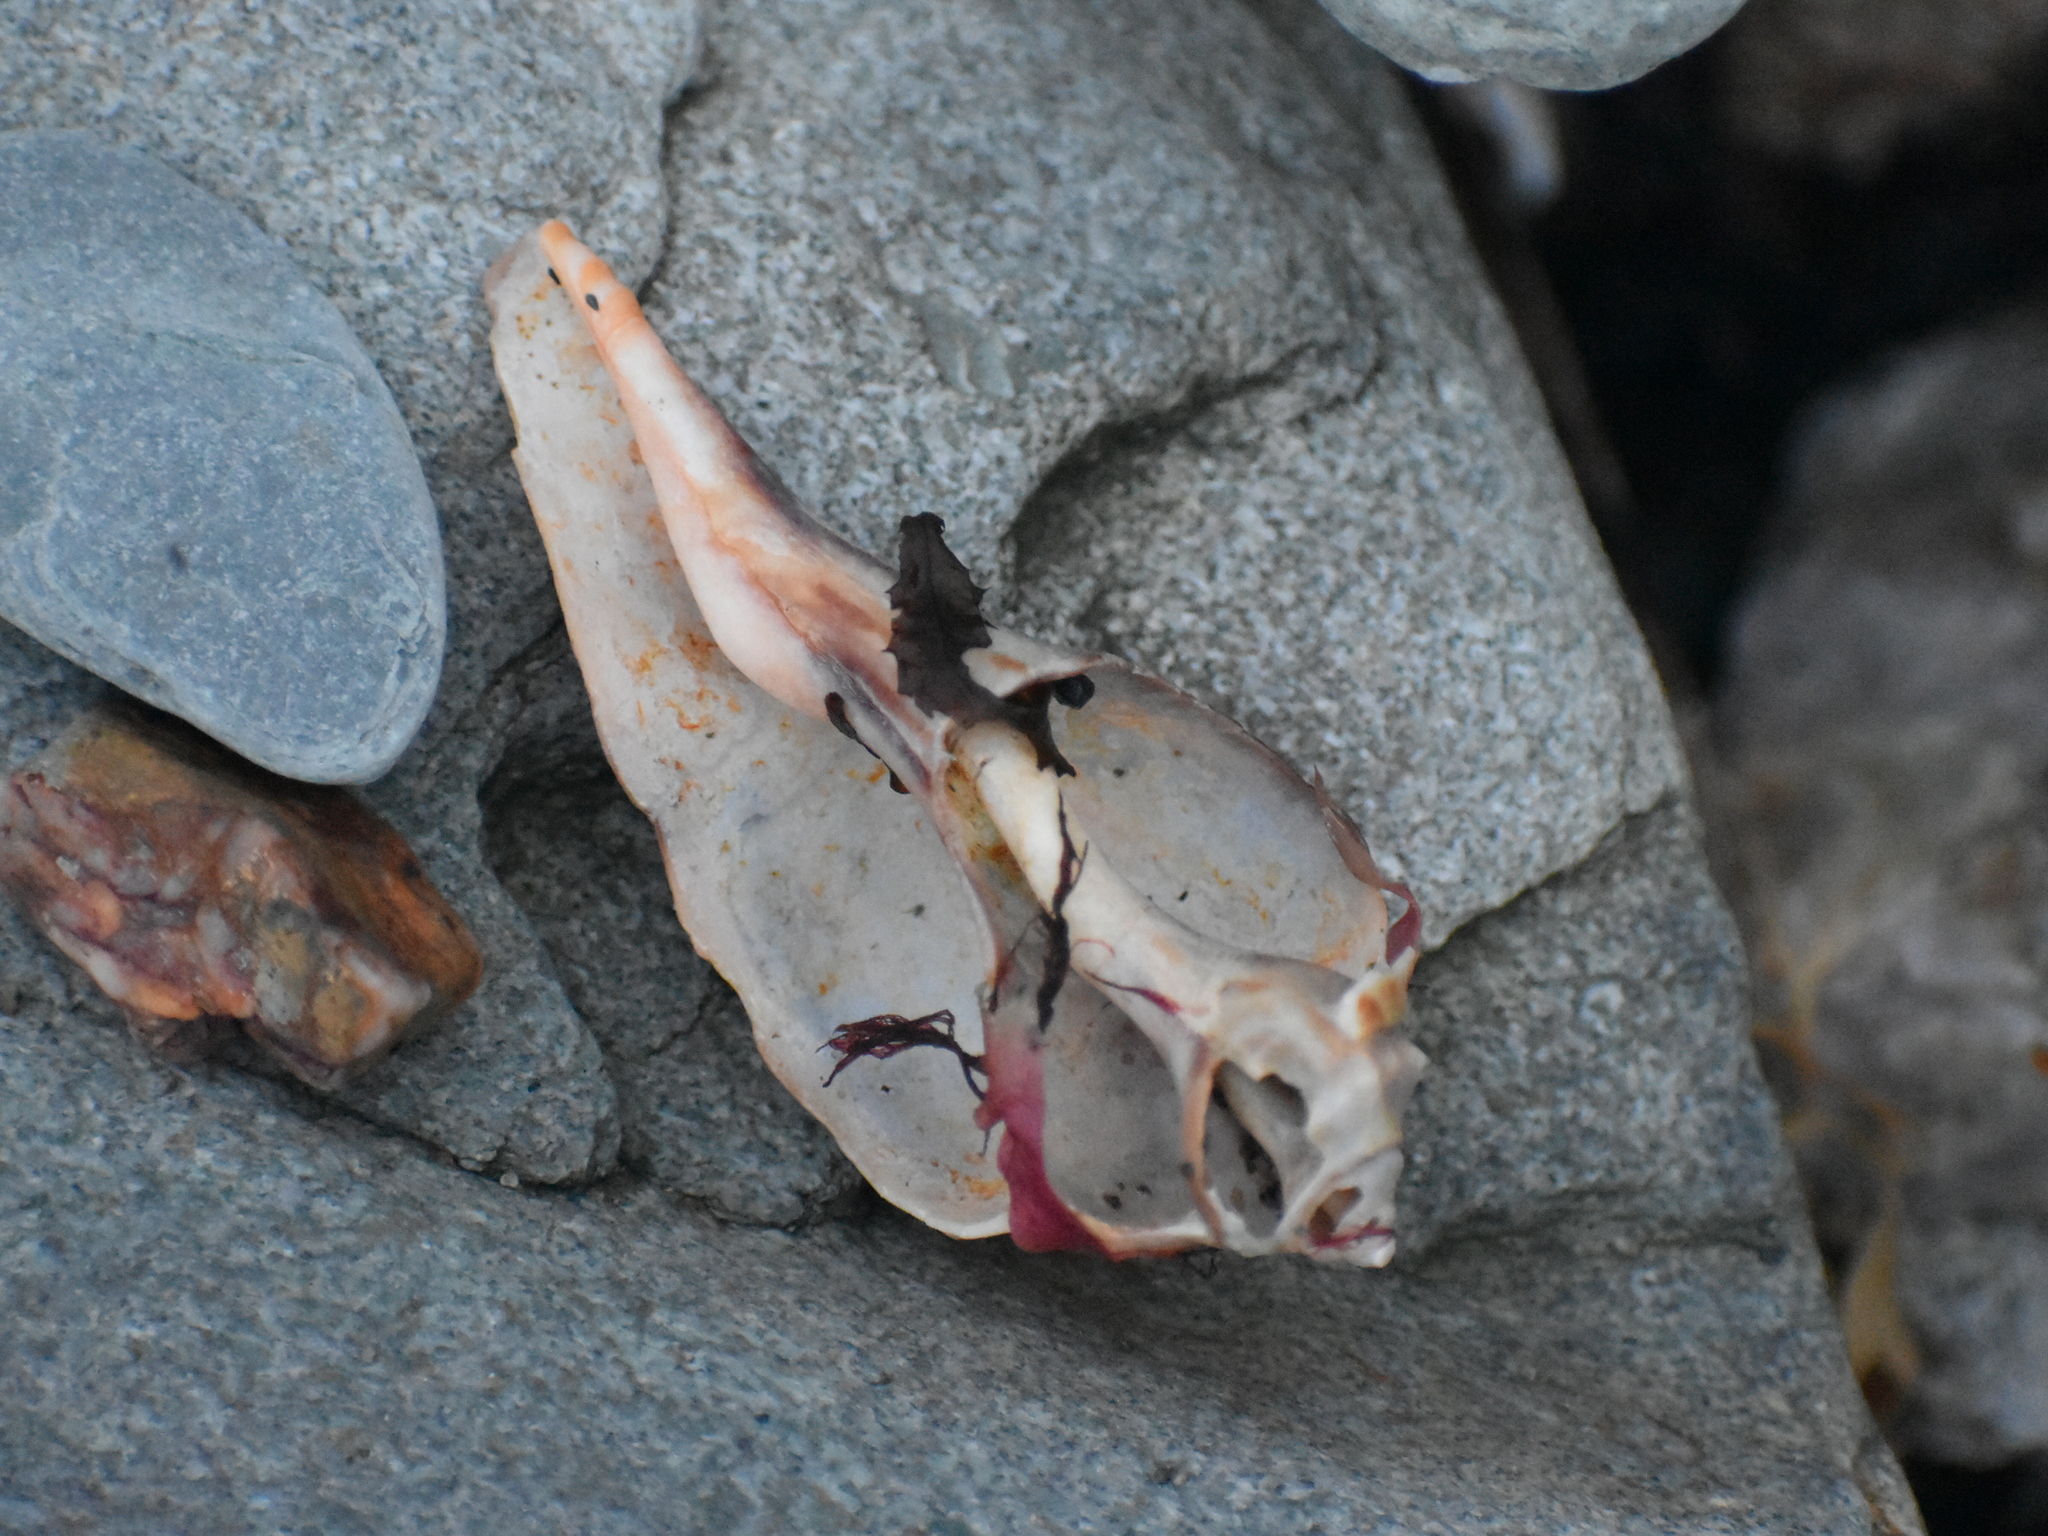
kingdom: Animalia
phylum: Mollusca
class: Gastropoda
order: Neogastropoda
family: Busyconidae
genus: Busycon
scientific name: Busycon carica
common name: Knobbed whelk
